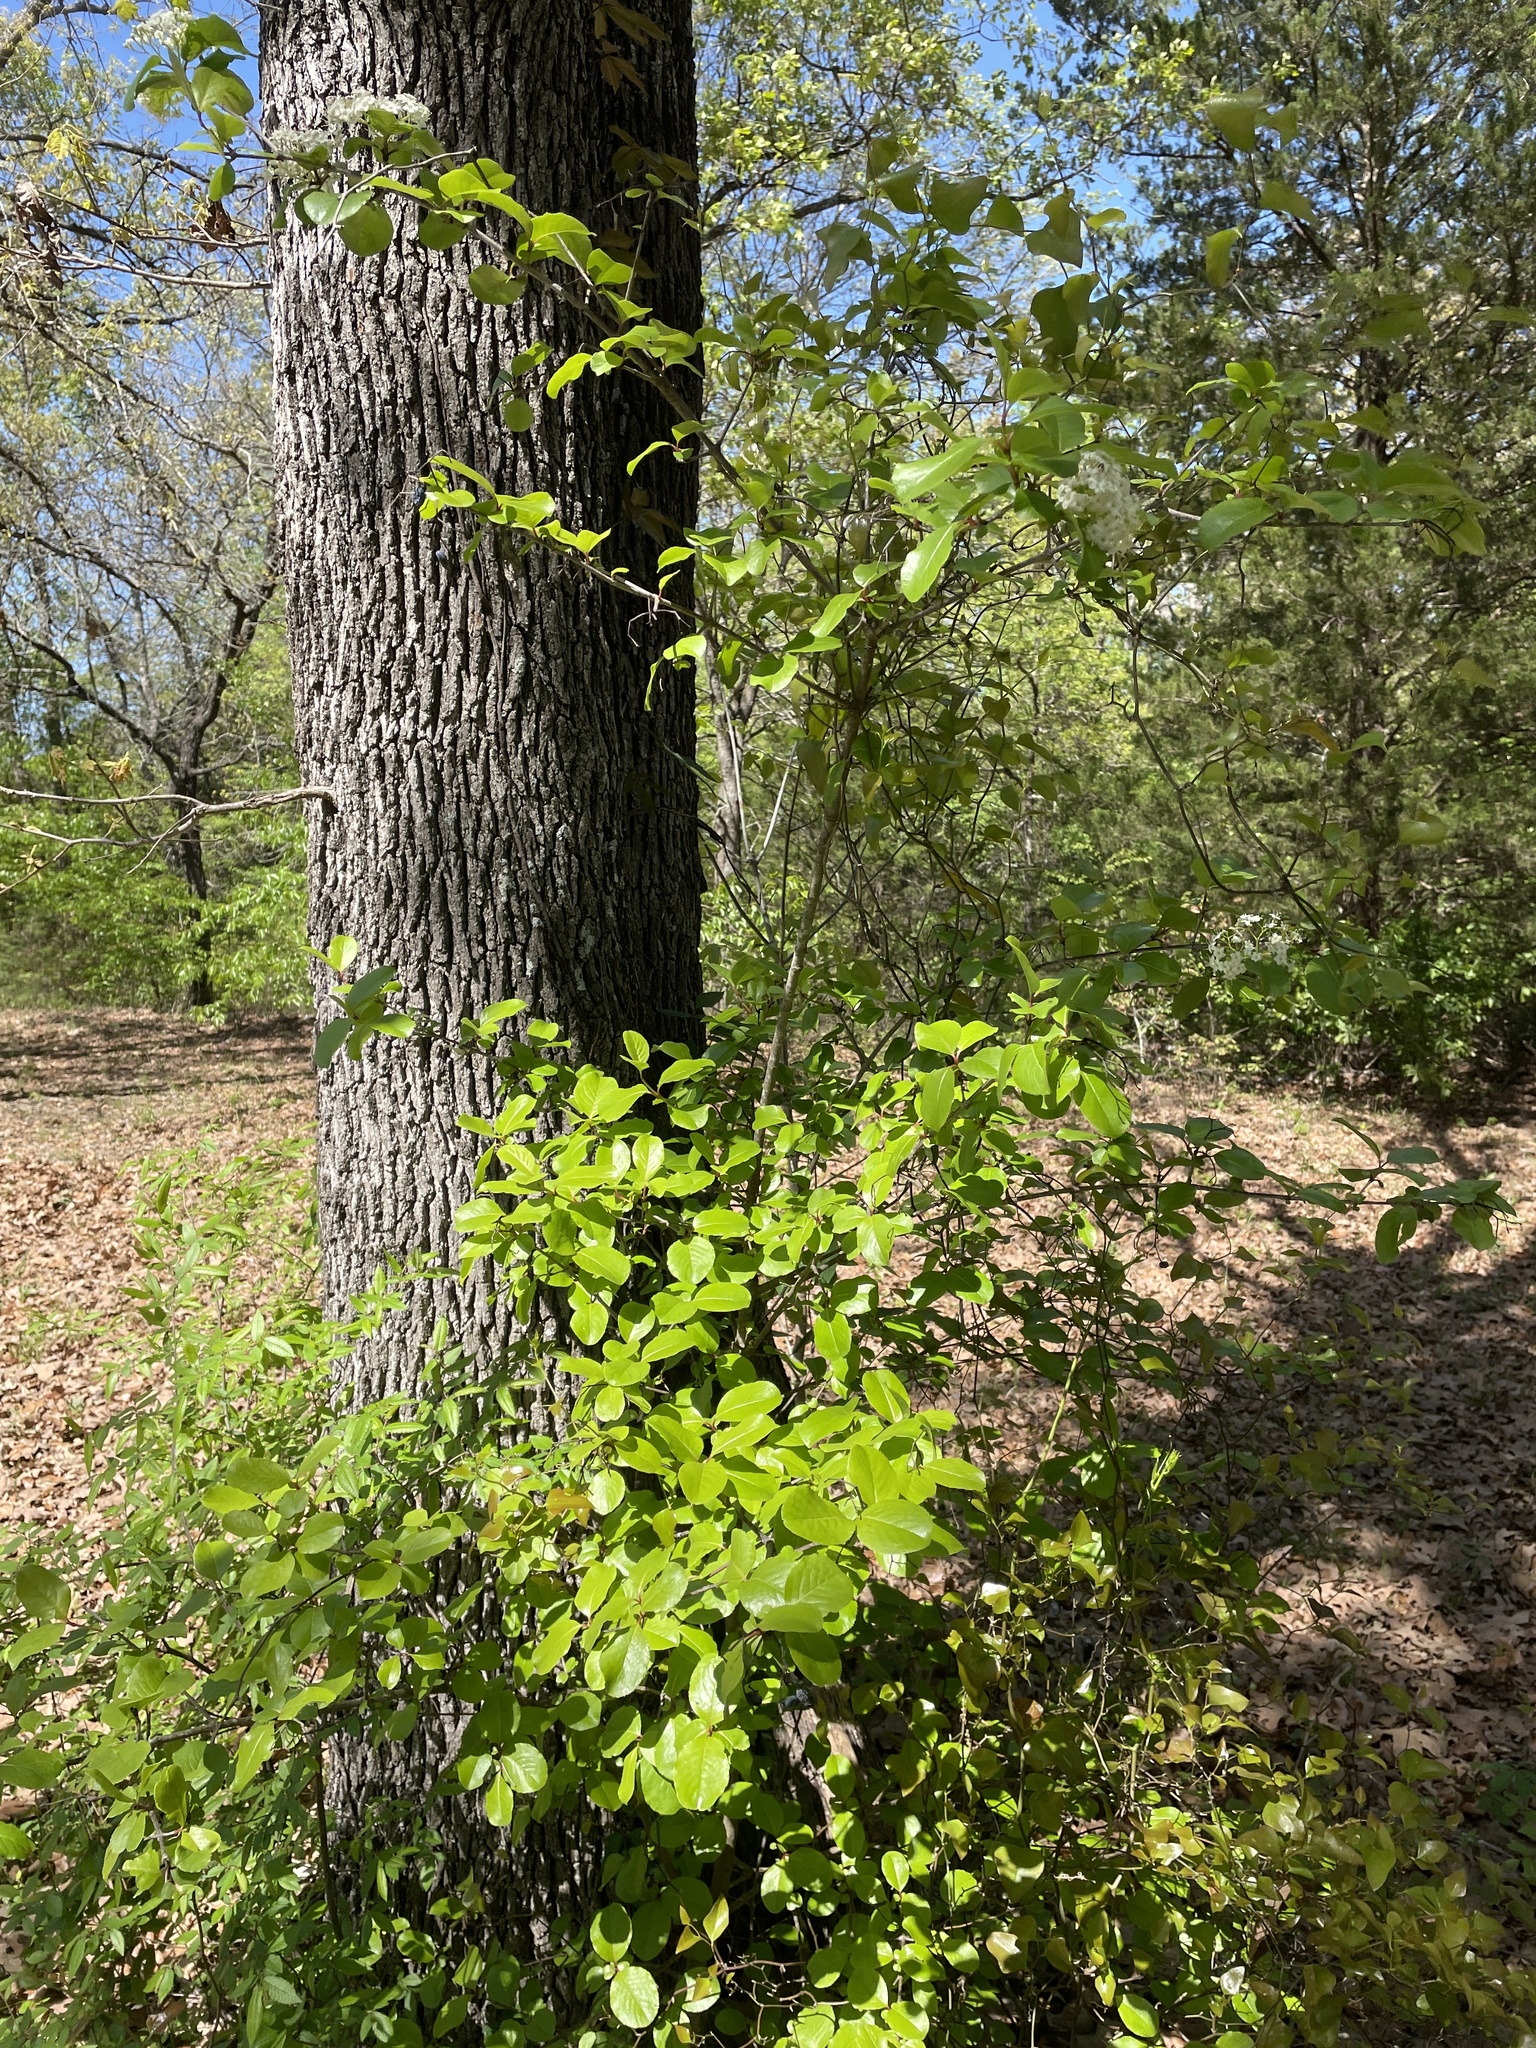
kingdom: Plantae
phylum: Tracheophyta
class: Magnoliopsida
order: Dipsacales
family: Viburnaceae
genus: Viburnum
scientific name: Viburnum rufidulum
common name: Blue haw
